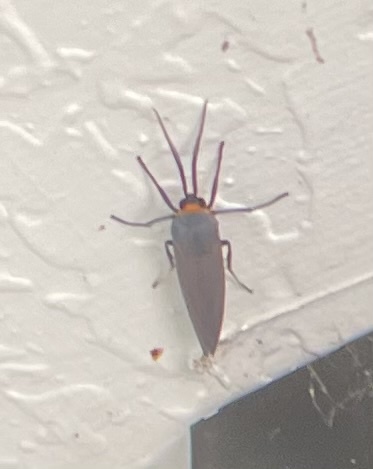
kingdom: Animalia
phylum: Arthropoda
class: Insecta
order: Lepidoptera
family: Erebidae
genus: Lymire
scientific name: Lymire edwardsii
